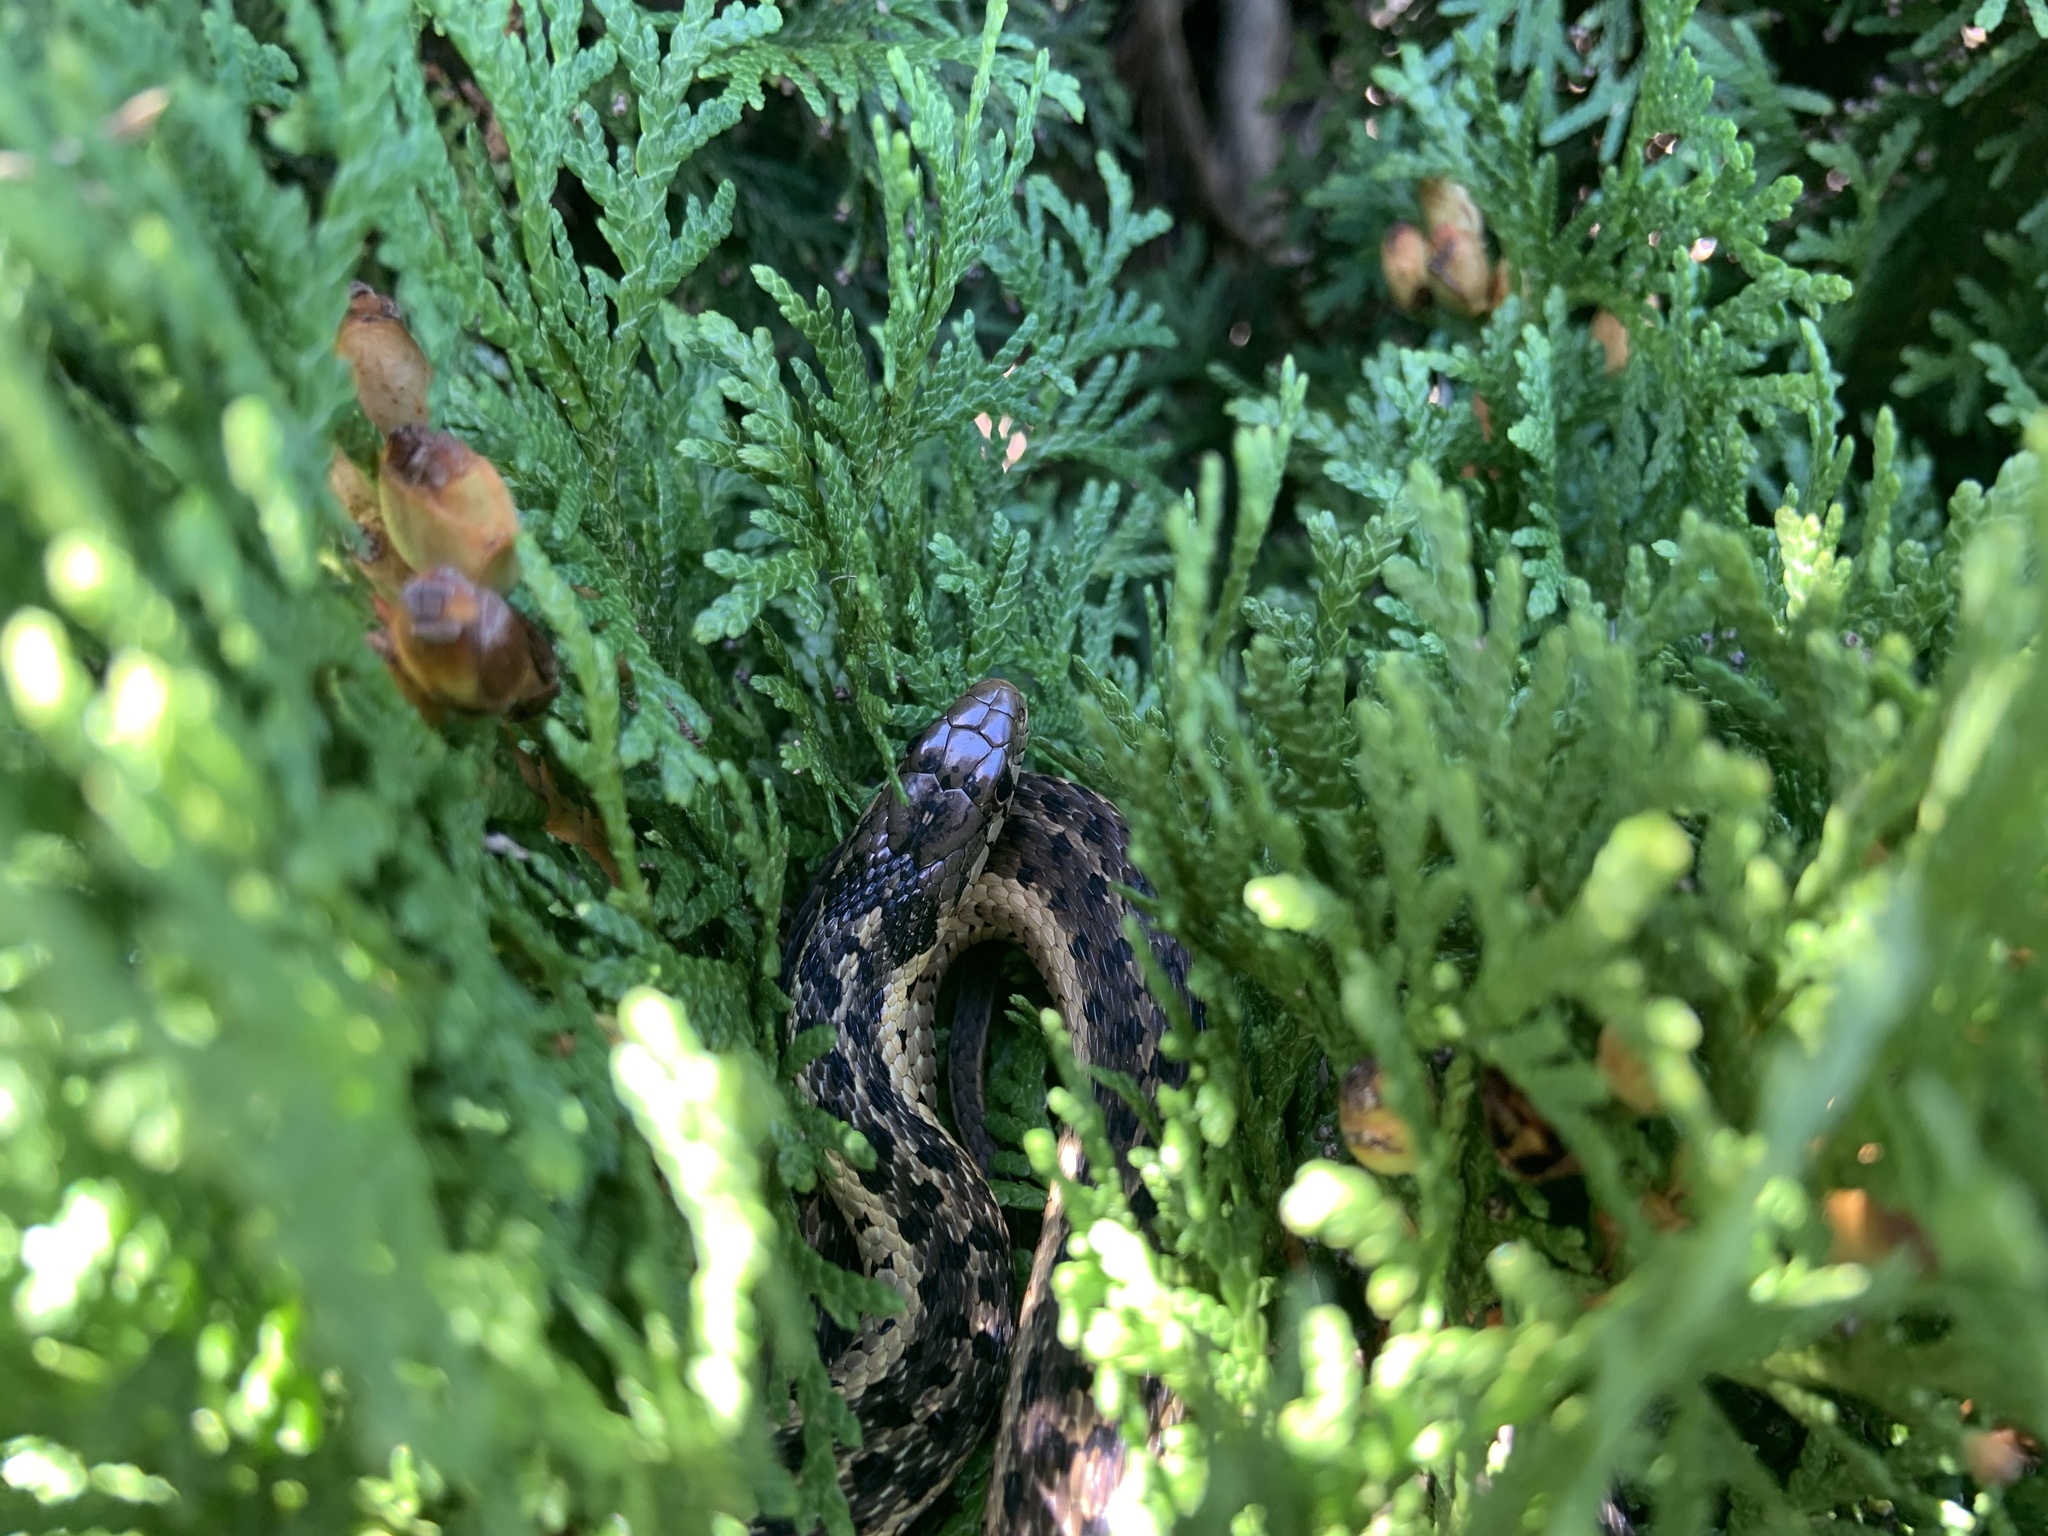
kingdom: Animalia
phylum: Chordata
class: Squamata
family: Colubridae
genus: Thamnophis
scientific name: Thamnophis sirtalis
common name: Common garter snake
